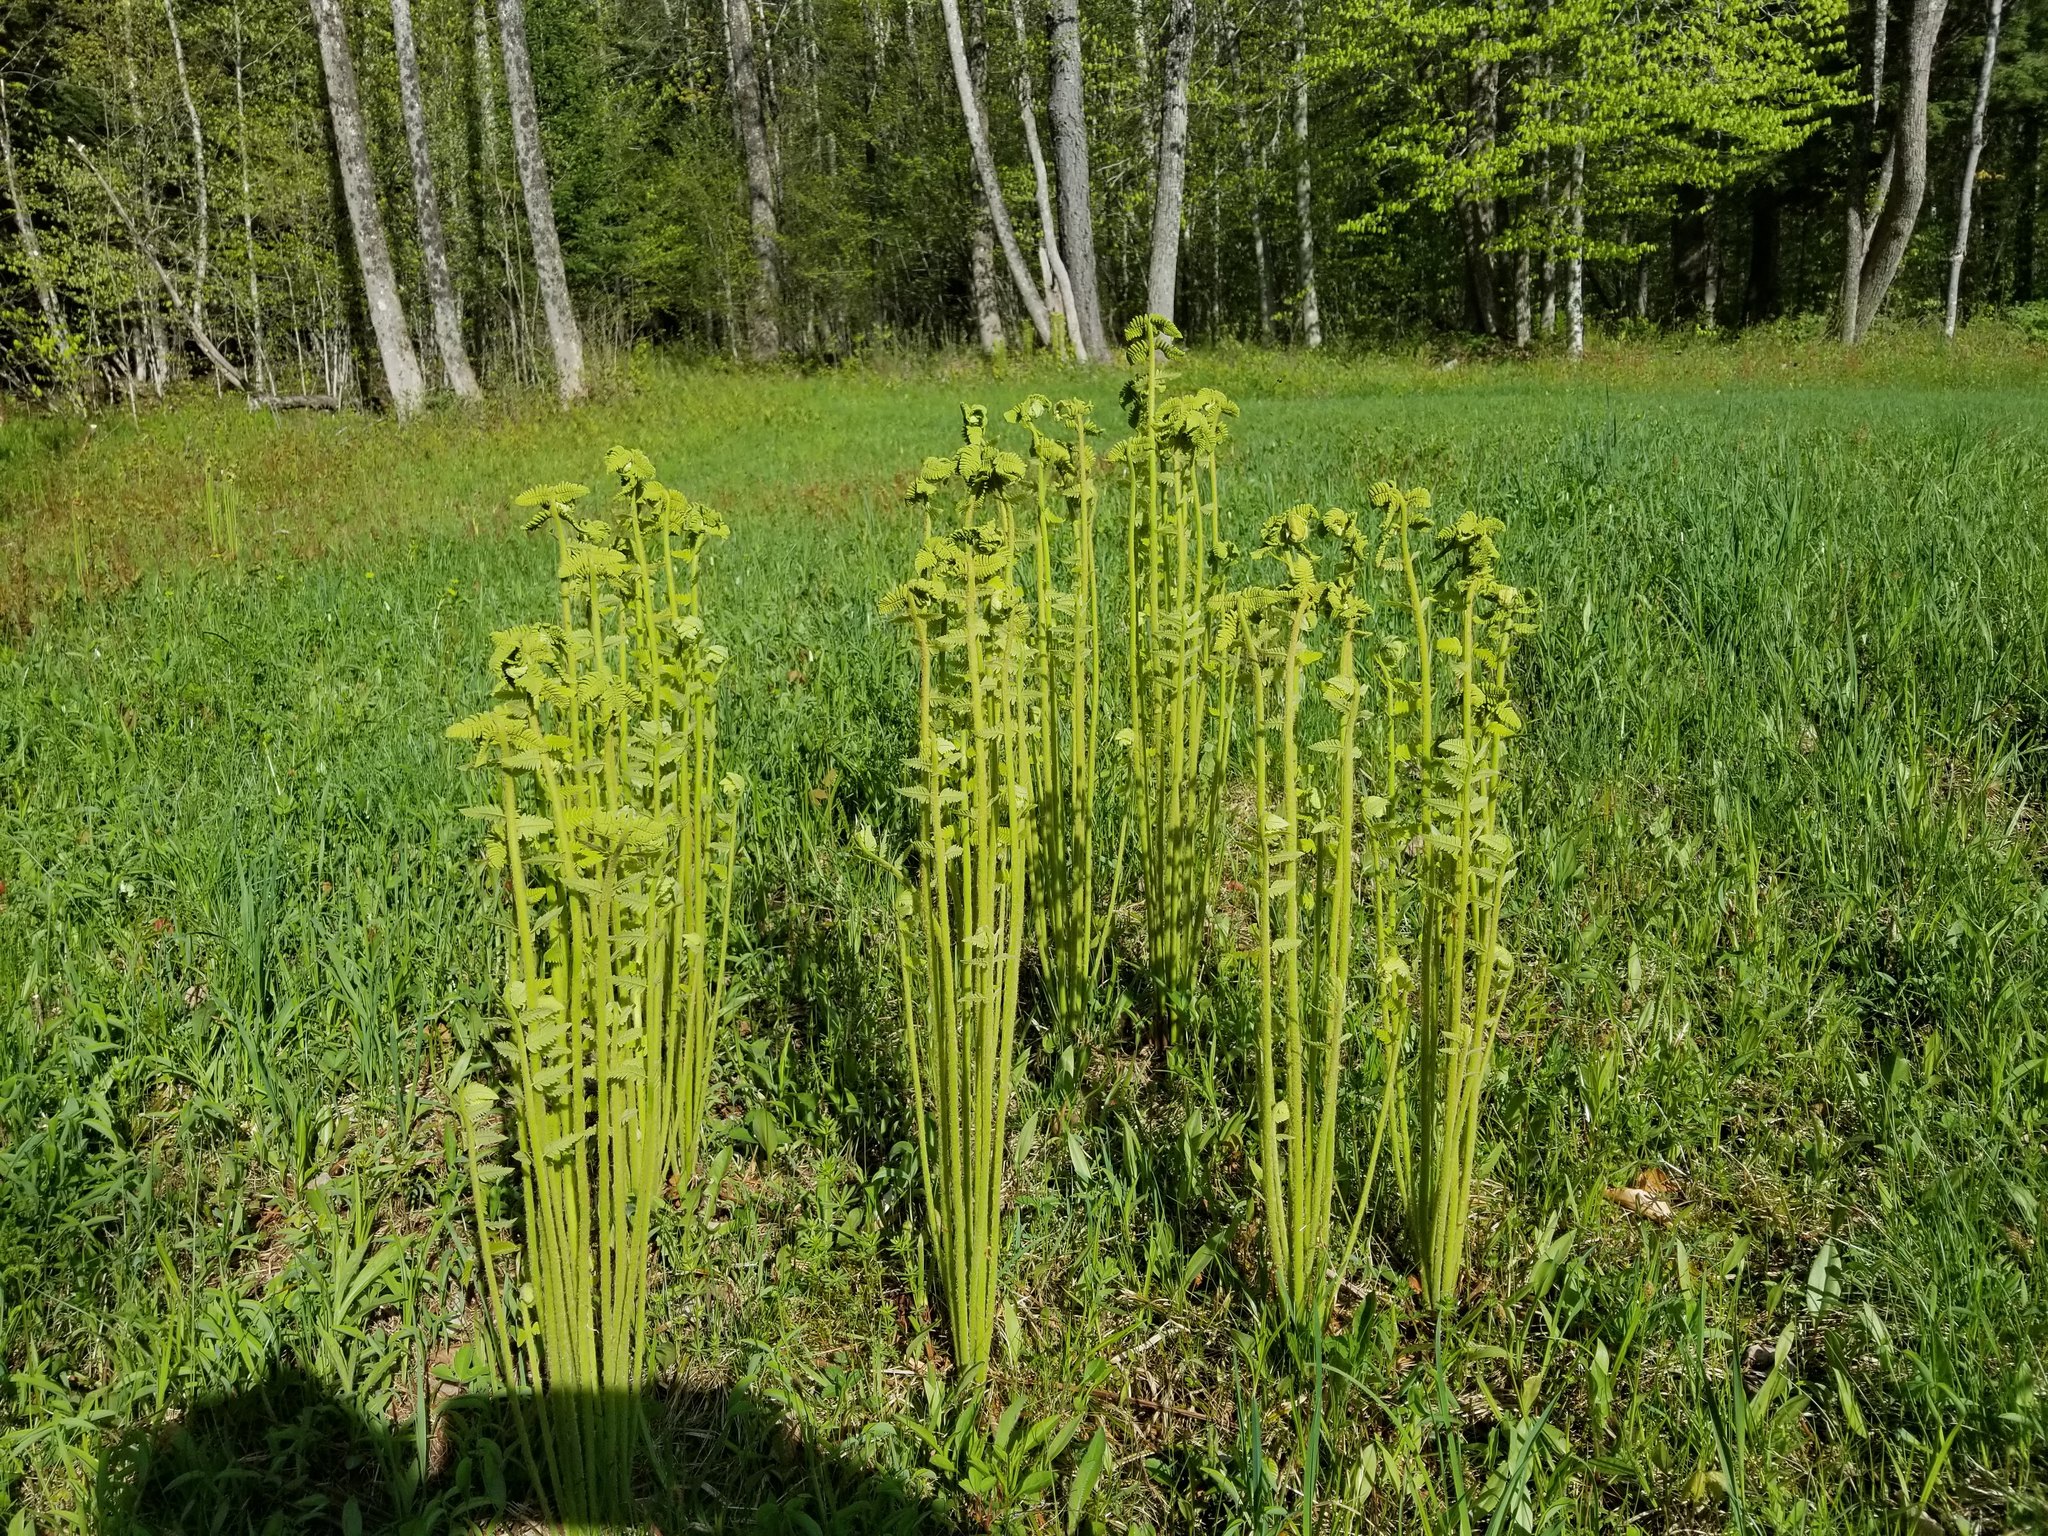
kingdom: Plantae
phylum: Tracheophyta
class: Polypodiopsida
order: Osmundales
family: Osmundaceae
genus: Claytosmunda
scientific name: Claytosmunda claytoniana
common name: Clayton's fern
